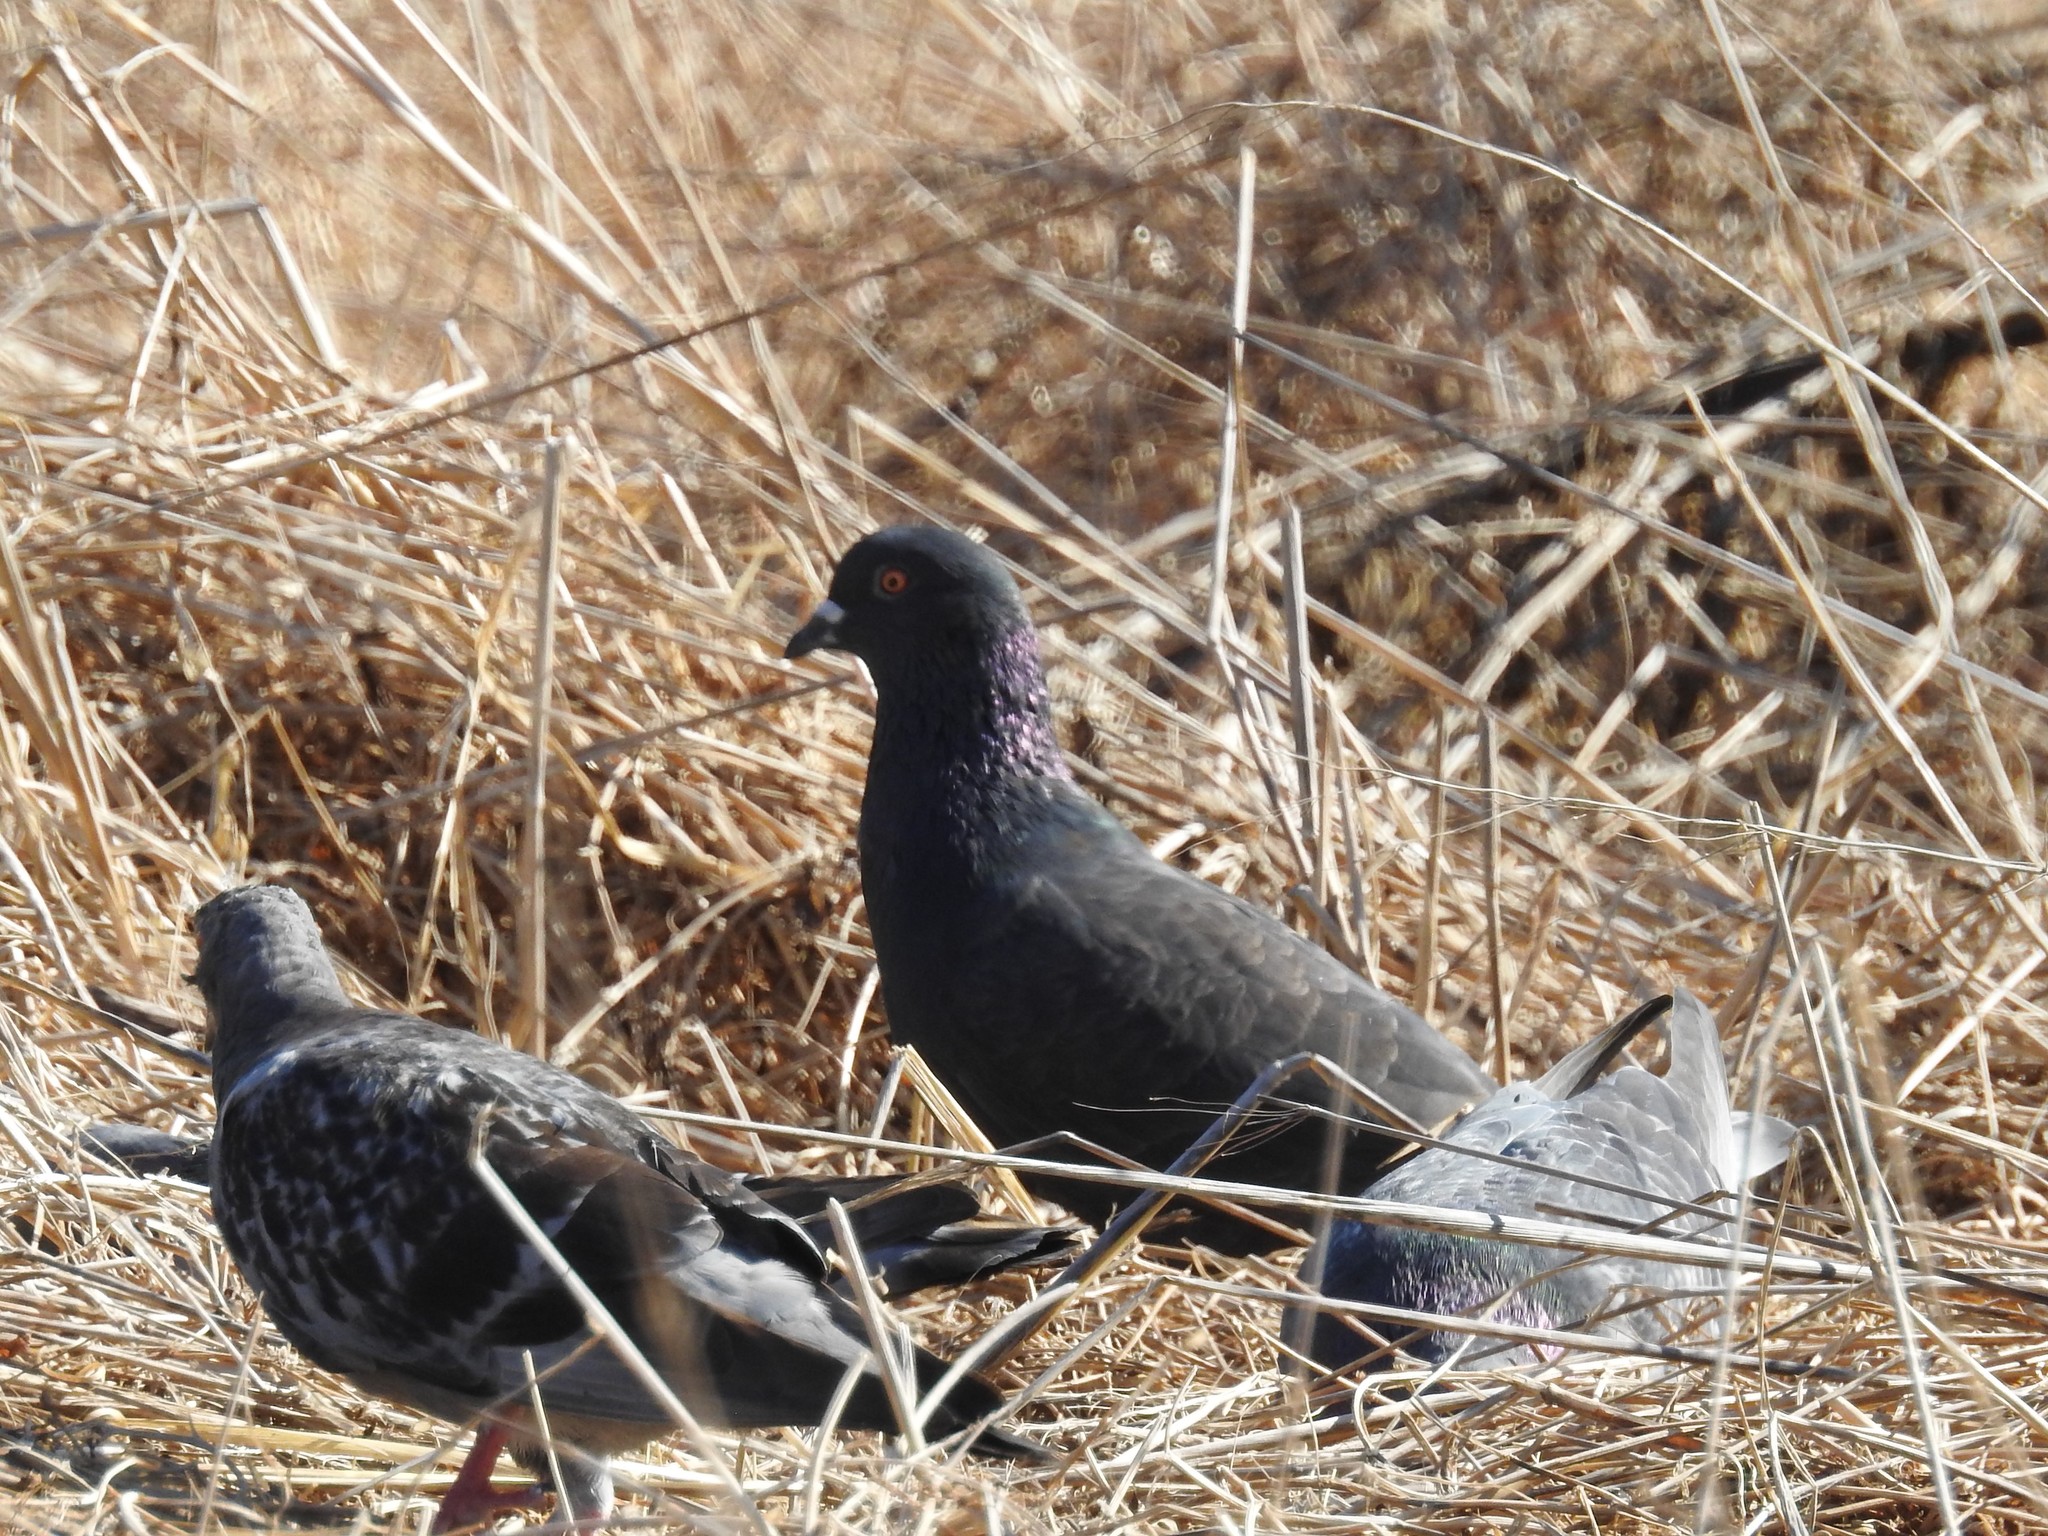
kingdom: Animalia
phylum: Chordata
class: Aves
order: Columbiformes
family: Columbidae
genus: Columba
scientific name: Columba livia
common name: Rock pigeon
